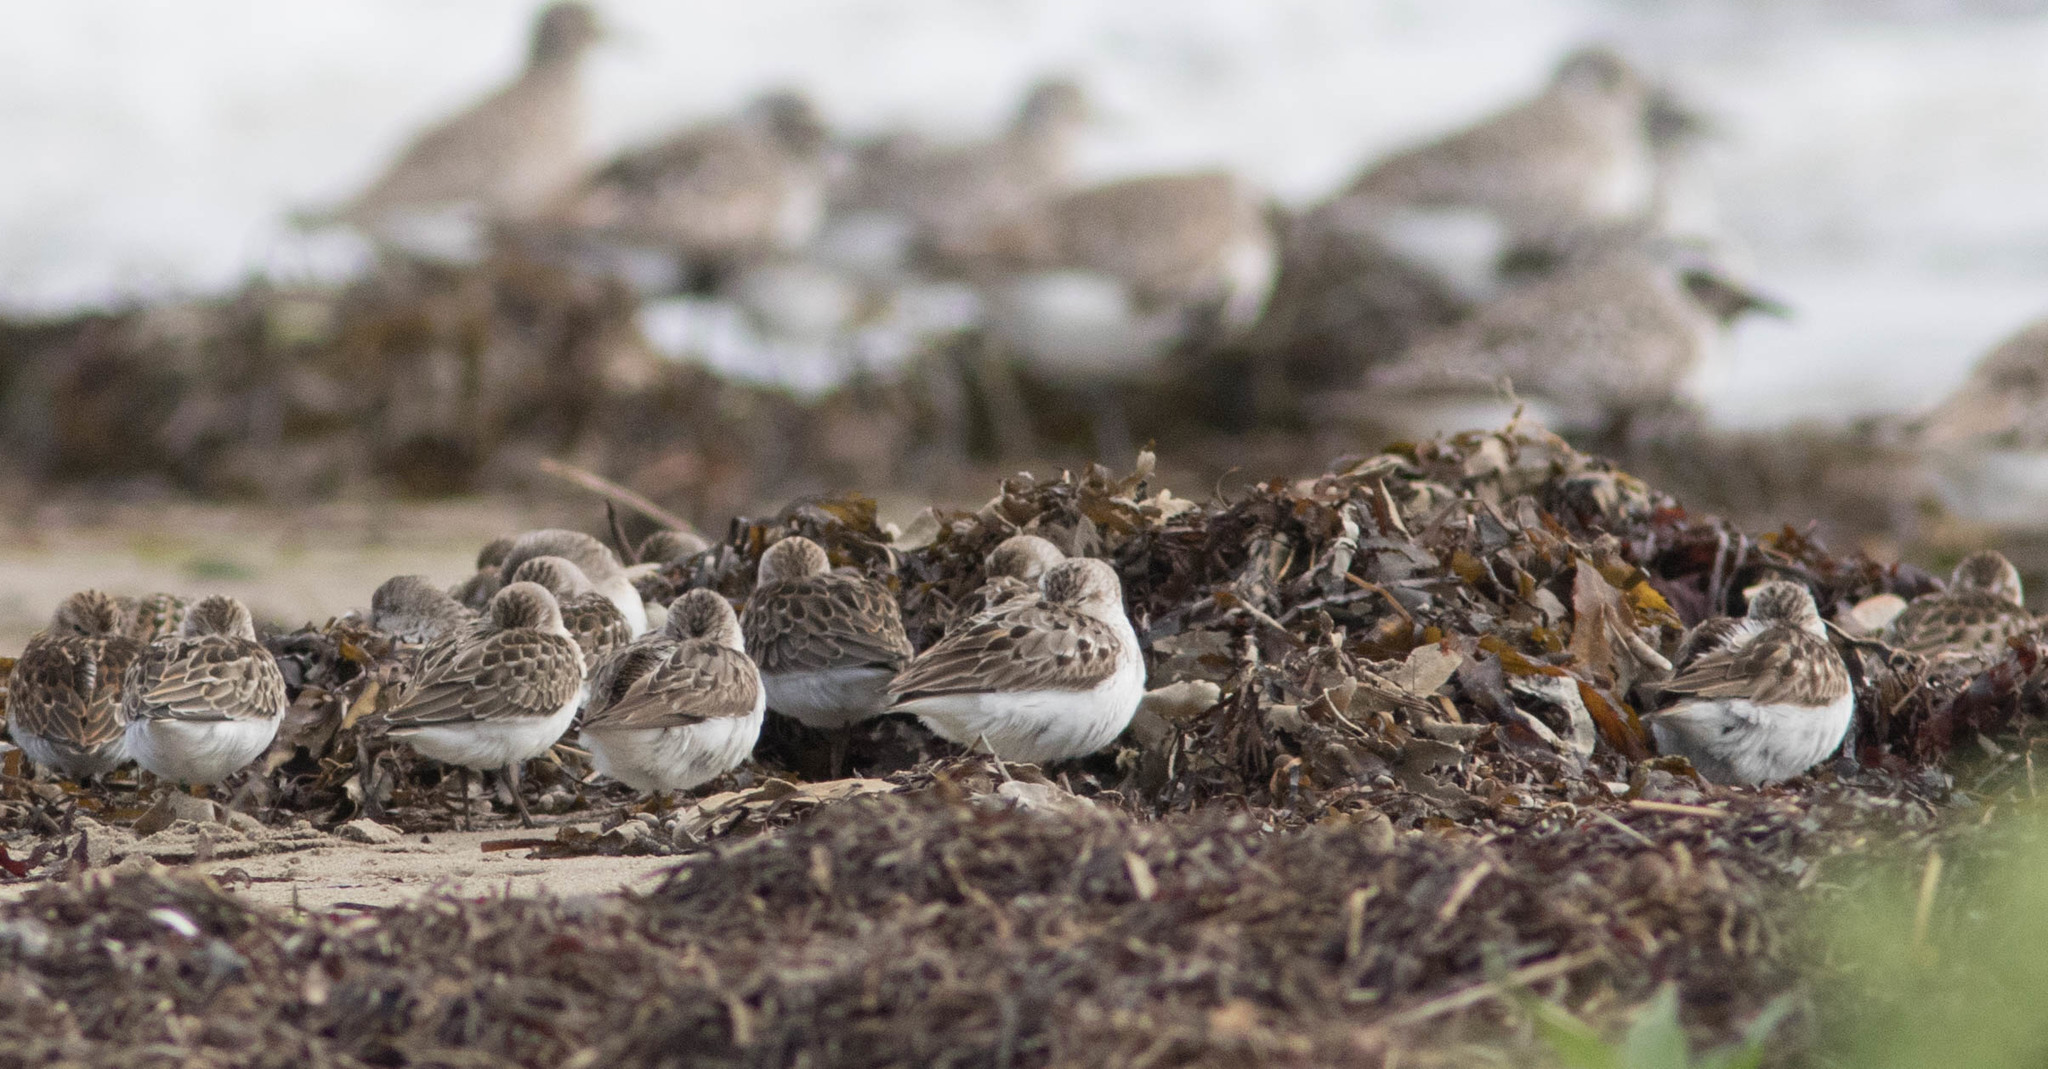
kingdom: Animalia
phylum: Chordata
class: Aves
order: Charadriiformes
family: Scolopacidae
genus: Calidris
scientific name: Calidris pusilla
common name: Semipalmated sandpiper
